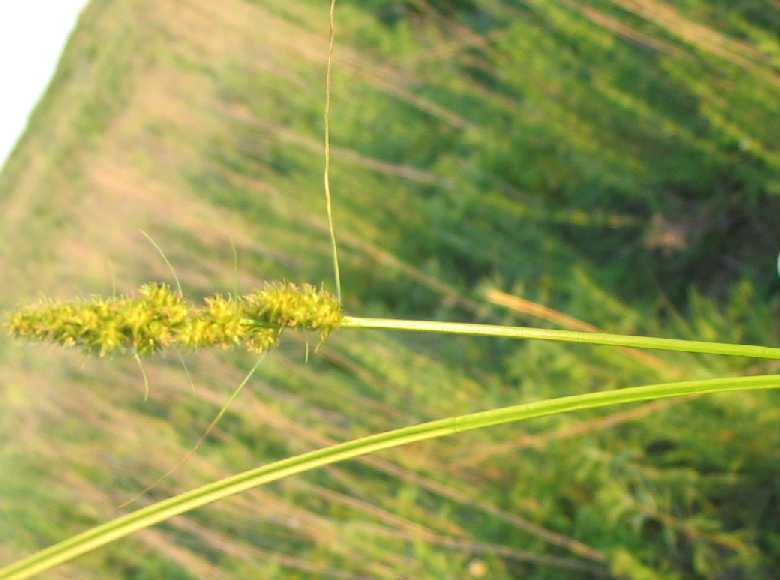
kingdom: Plantae
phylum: Tracheophyta
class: Liliopsida
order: Poales
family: Cyperaceae
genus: Carex
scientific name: Carex vulpinoidea
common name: American fox-sedge
